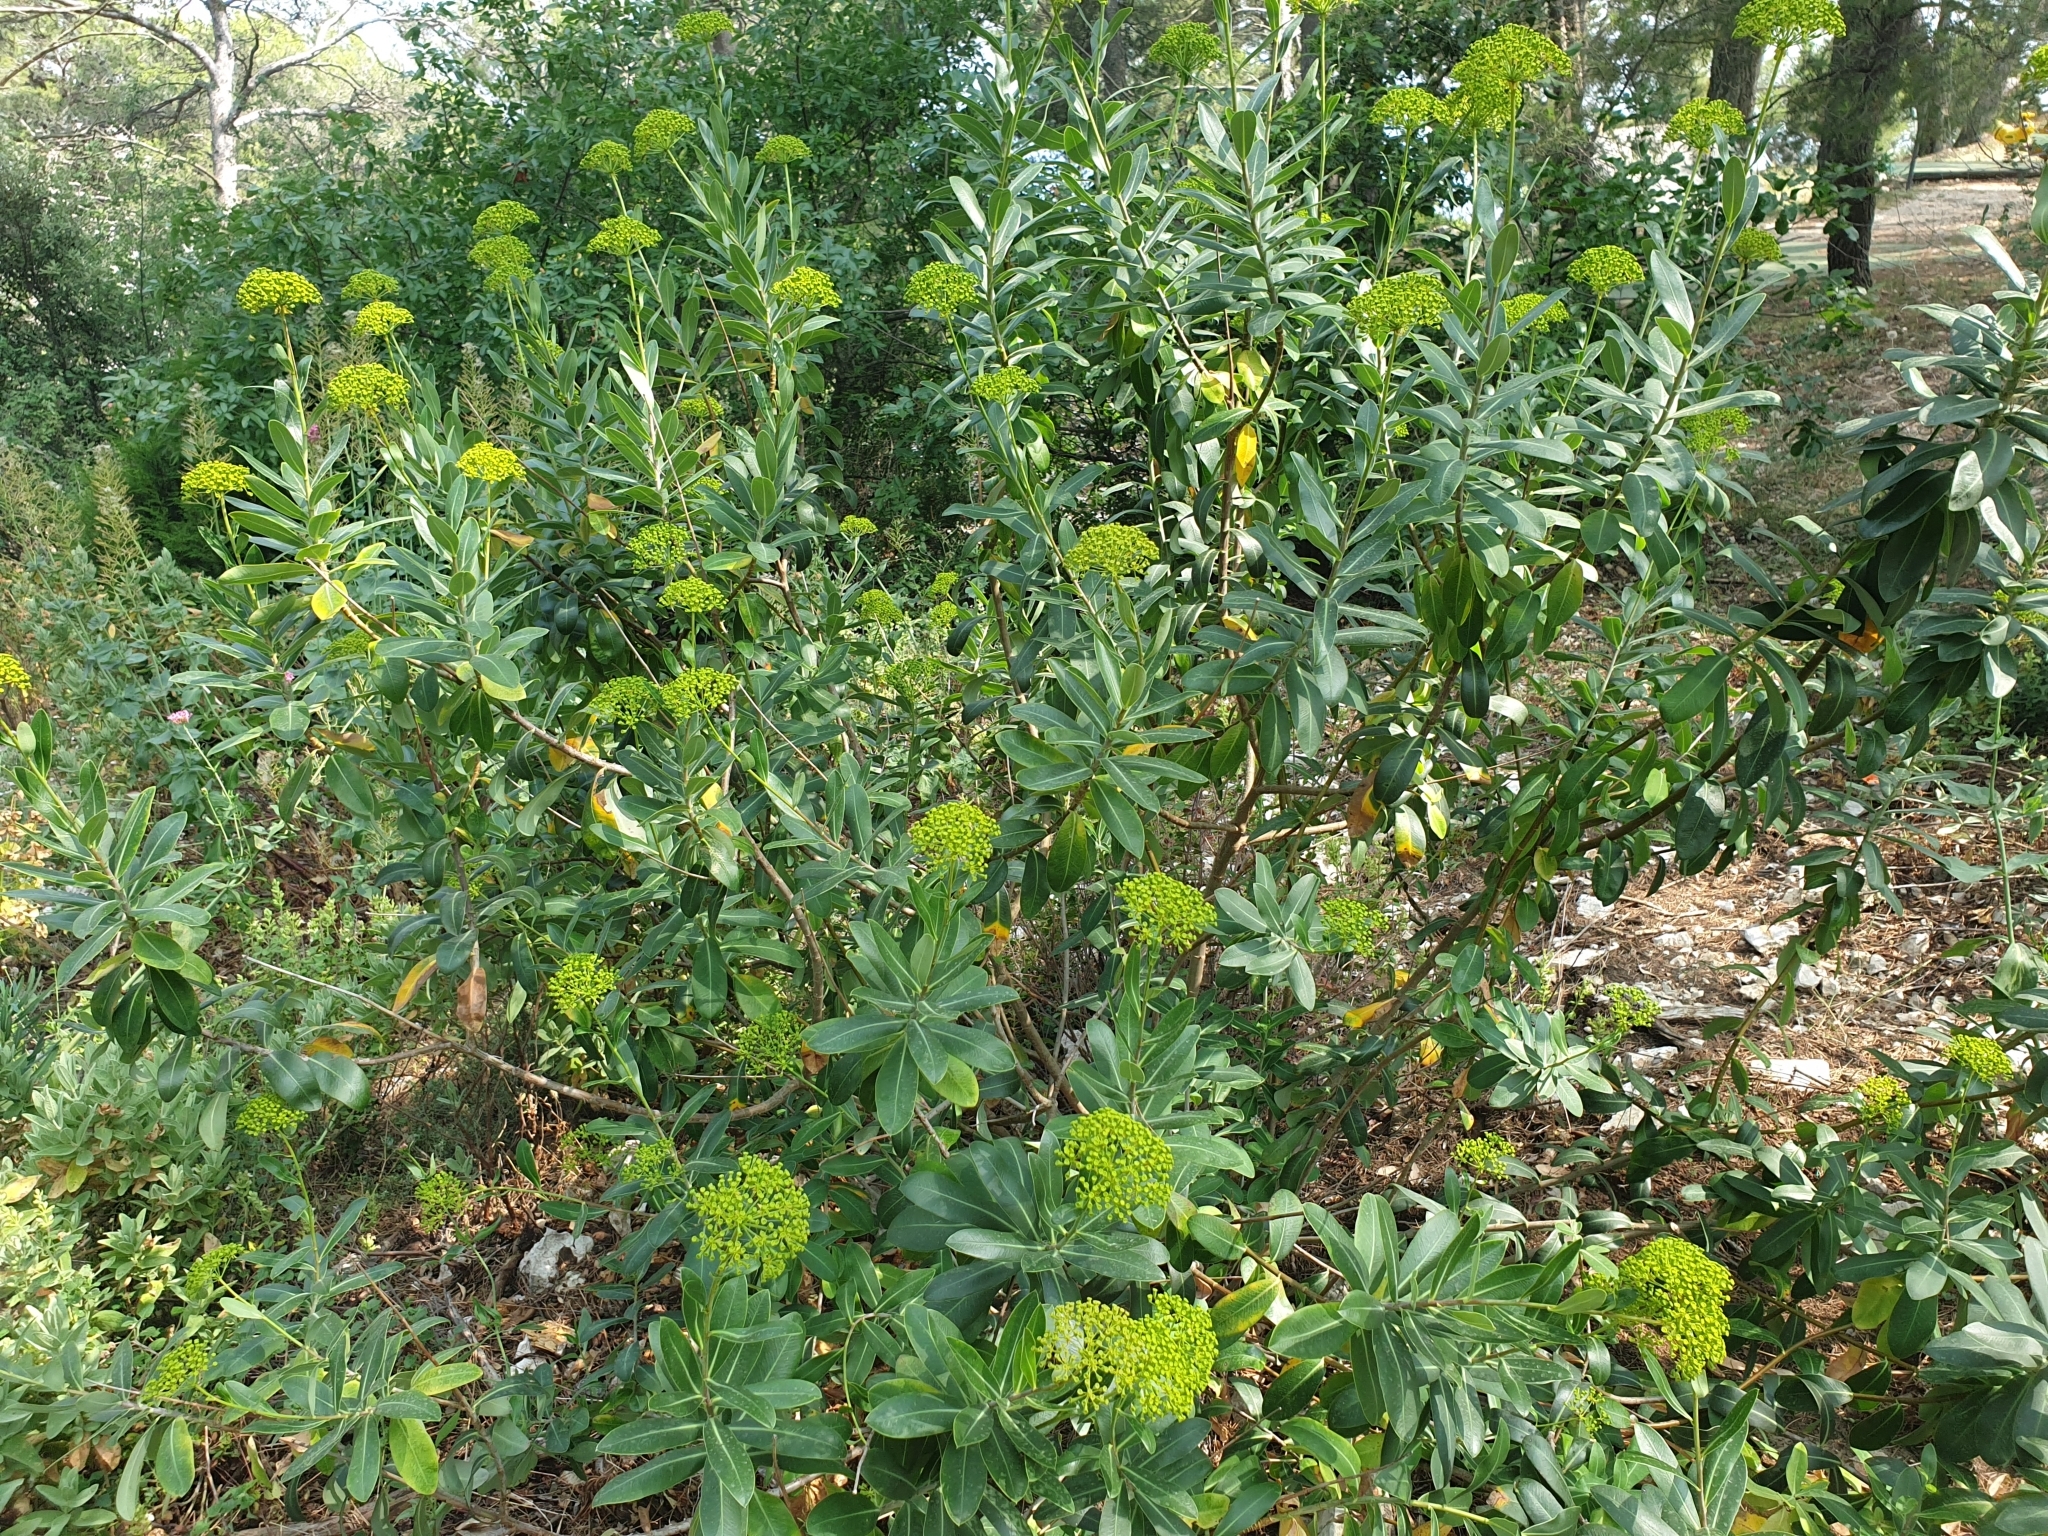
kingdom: Plantae
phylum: Tracheophyta
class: Magnoliopsida
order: Apiales
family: Apiaceae
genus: Bupleurum
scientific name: Bupleurum fruticosum
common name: Shrubby hare's-ear
